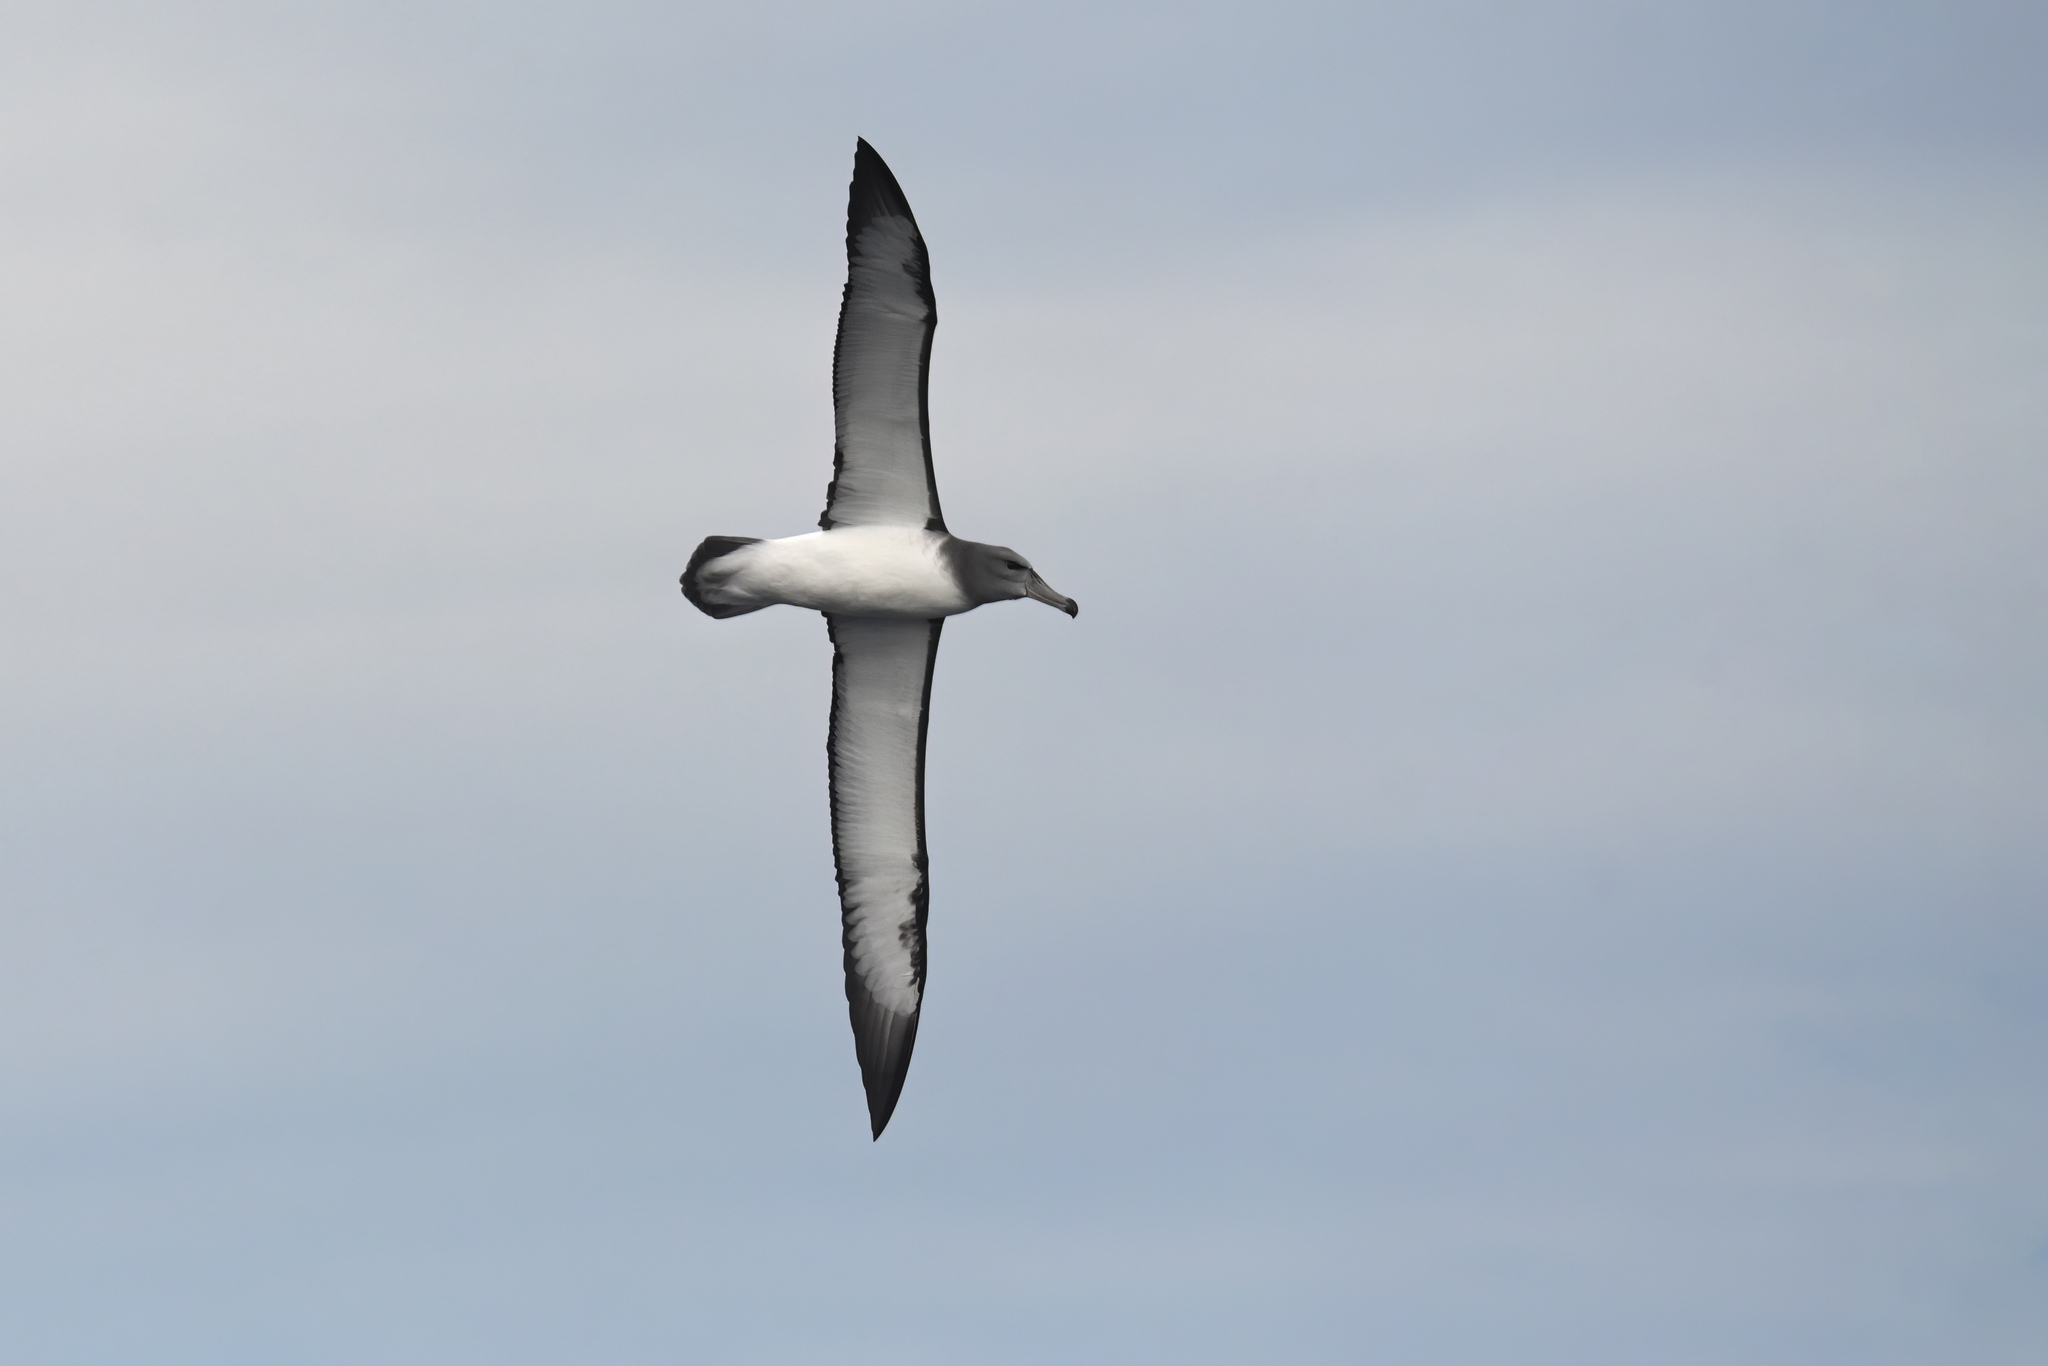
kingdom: Animalia
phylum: Chordata
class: Aves
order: Procellariiformes
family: Diomedeidae
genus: Thalassarche
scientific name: Thalassarche cauta
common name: Shy albatross
